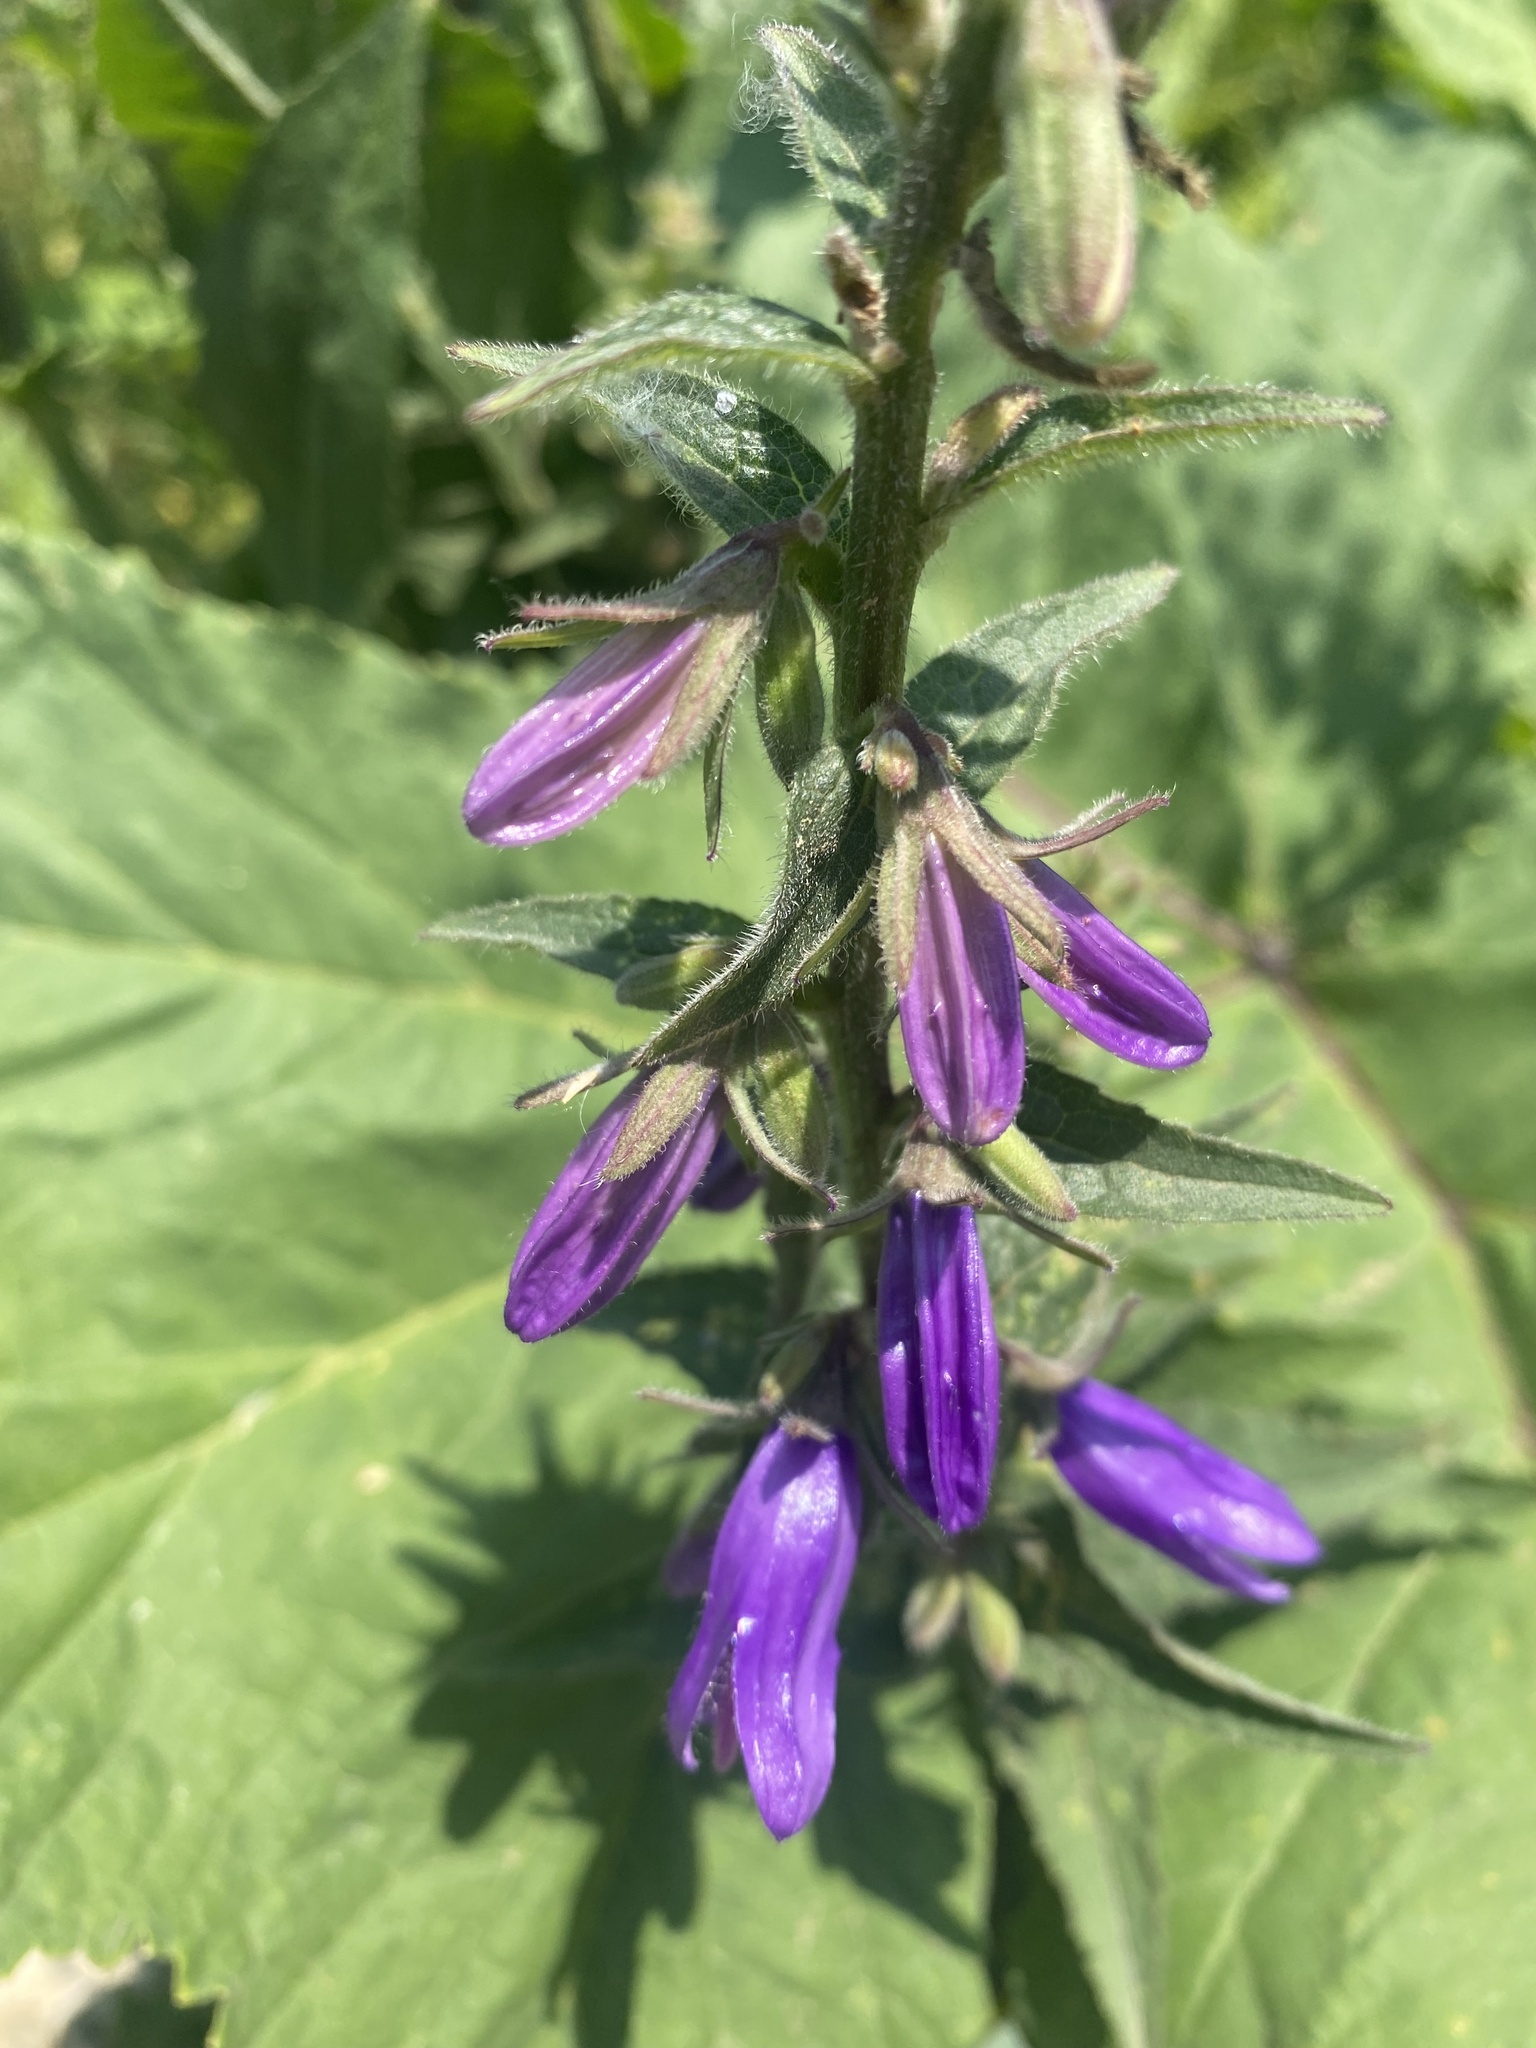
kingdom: Plantae
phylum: Tracheophyta
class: Magnoliopsida
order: Asterales
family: Campanulaceae
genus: Campanula
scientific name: Campanula rapunculoides
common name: Creeping bellflower
